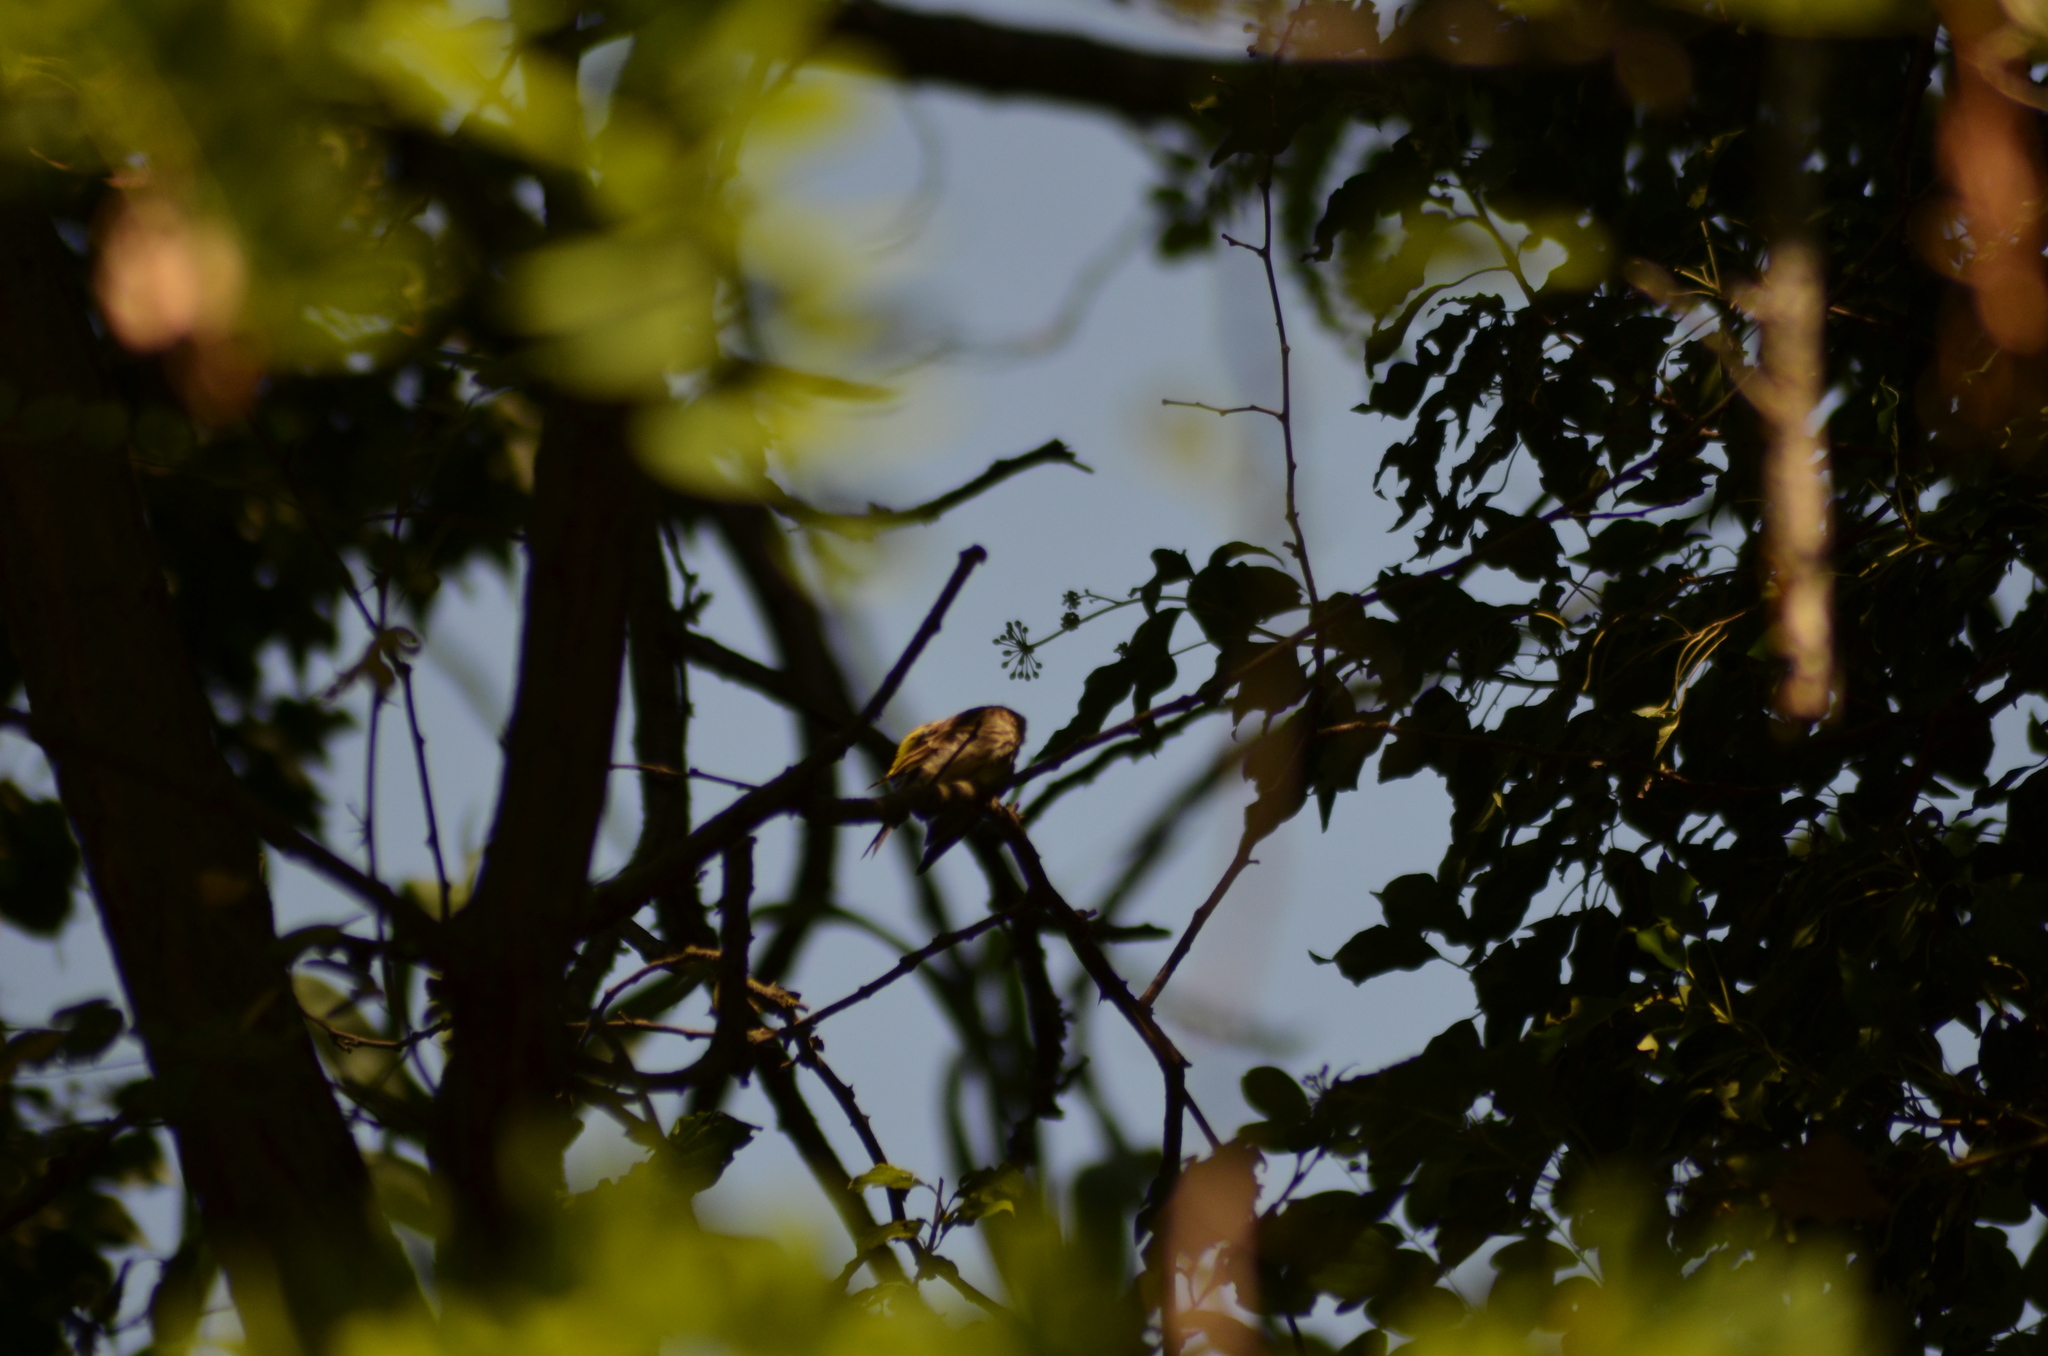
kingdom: Animalia
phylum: Chordata
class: Aves
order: Passeriformes
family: Fringillidae
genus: Serinus
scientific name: Serinus serinus
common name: European serin
